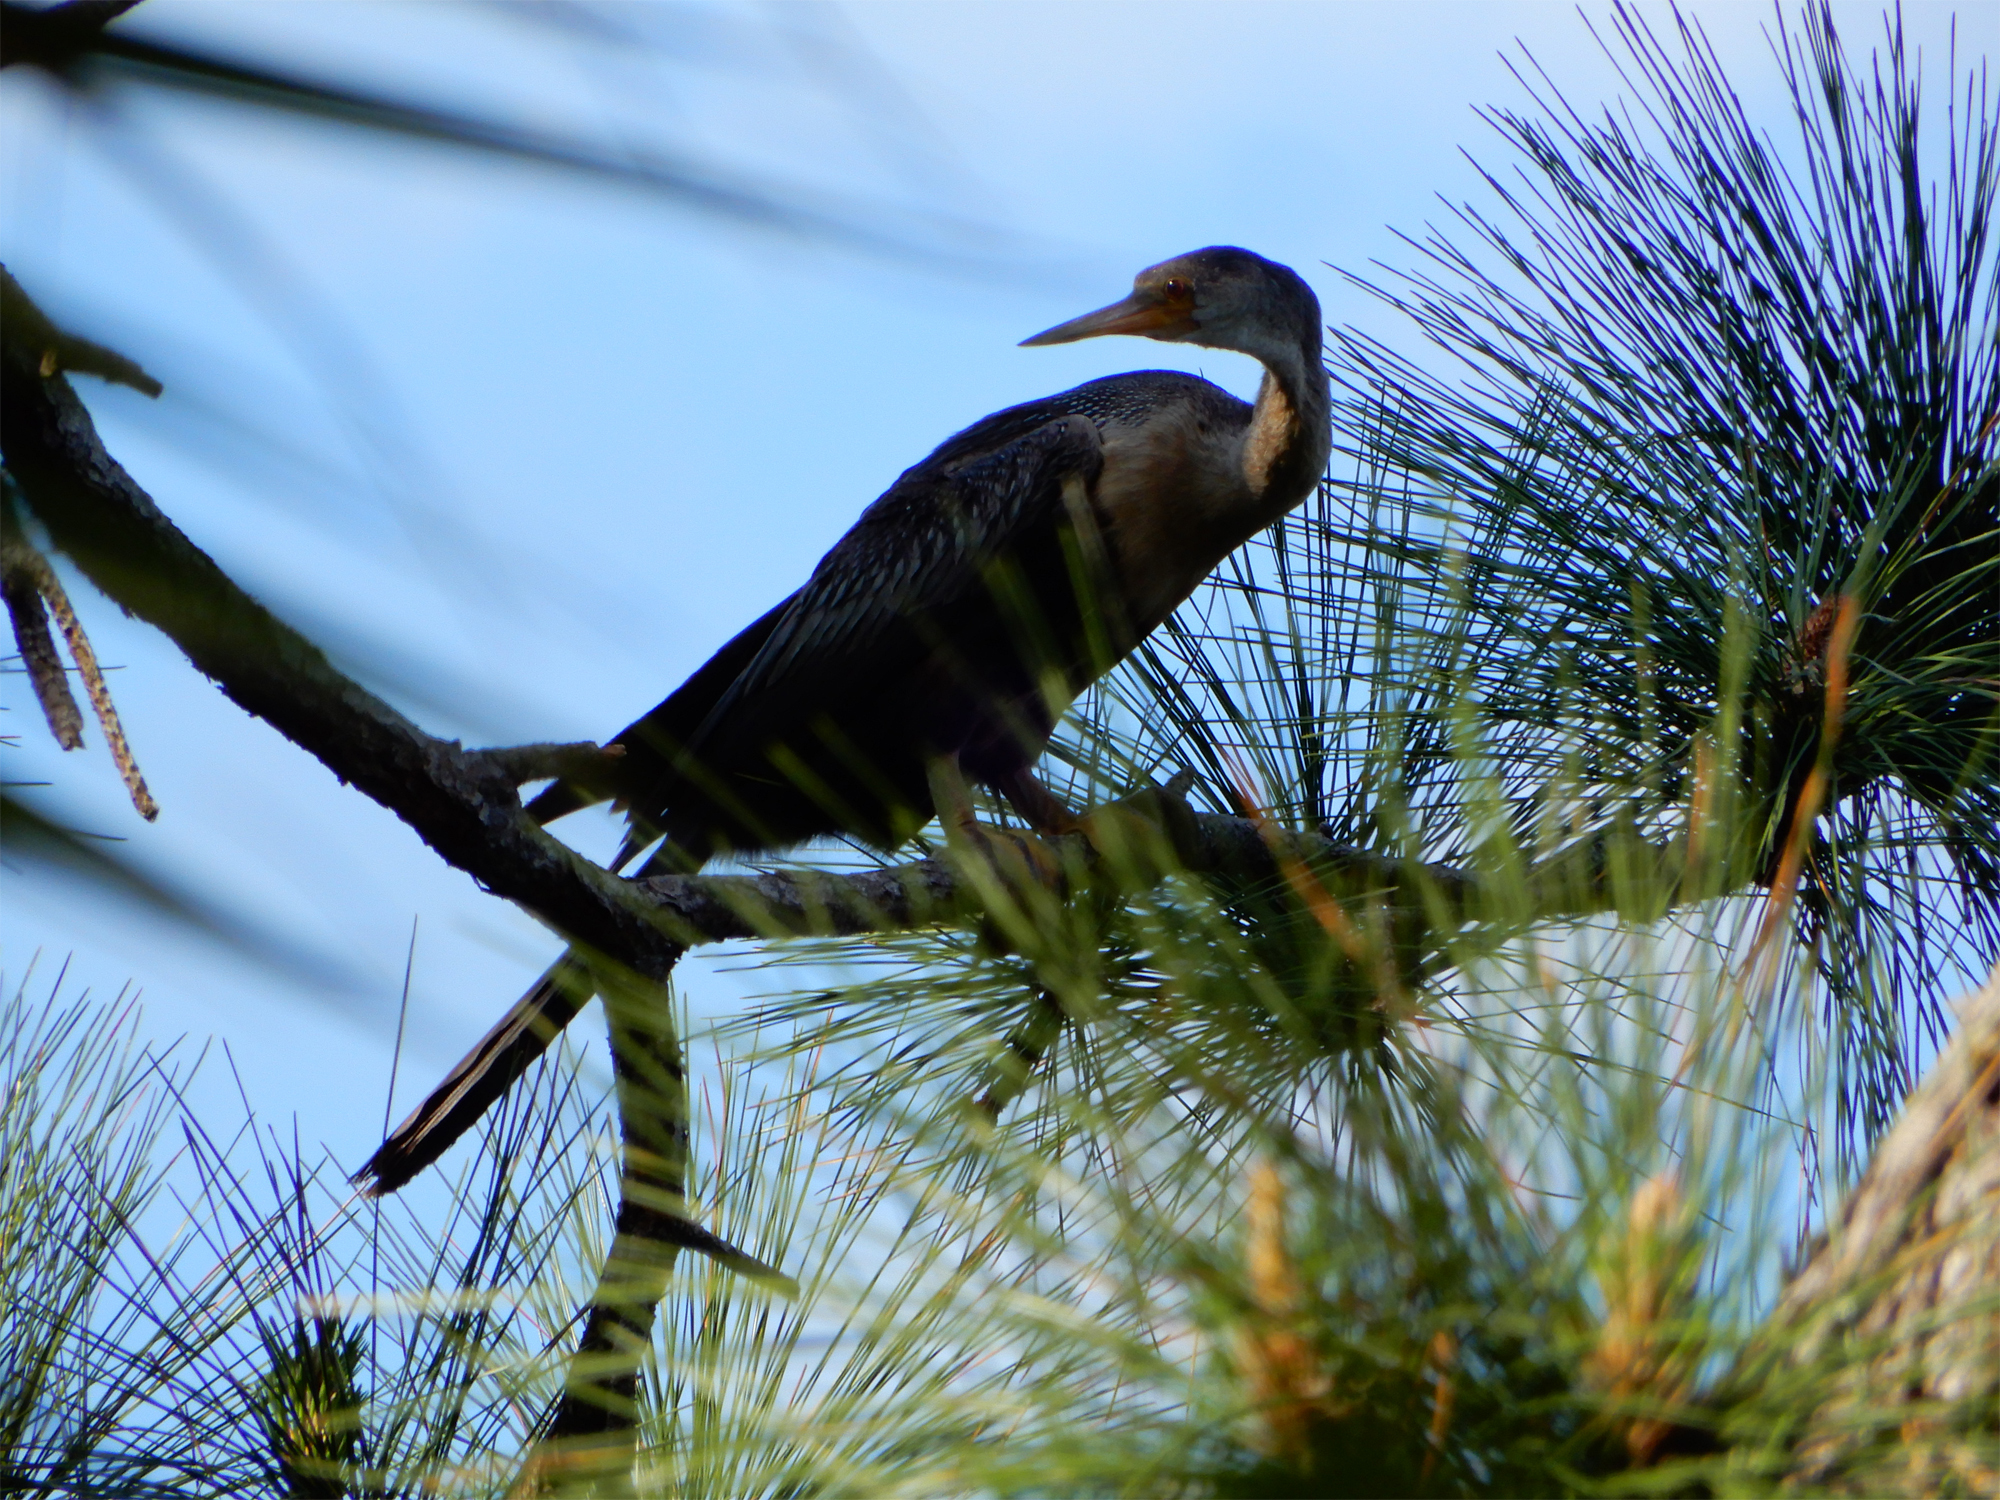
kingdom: Animalia
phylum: Chordata
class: Aves
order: Suliformes
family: Anhingidae
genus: Anhinga
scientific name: Anhinga anhinga
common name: Anhinga
